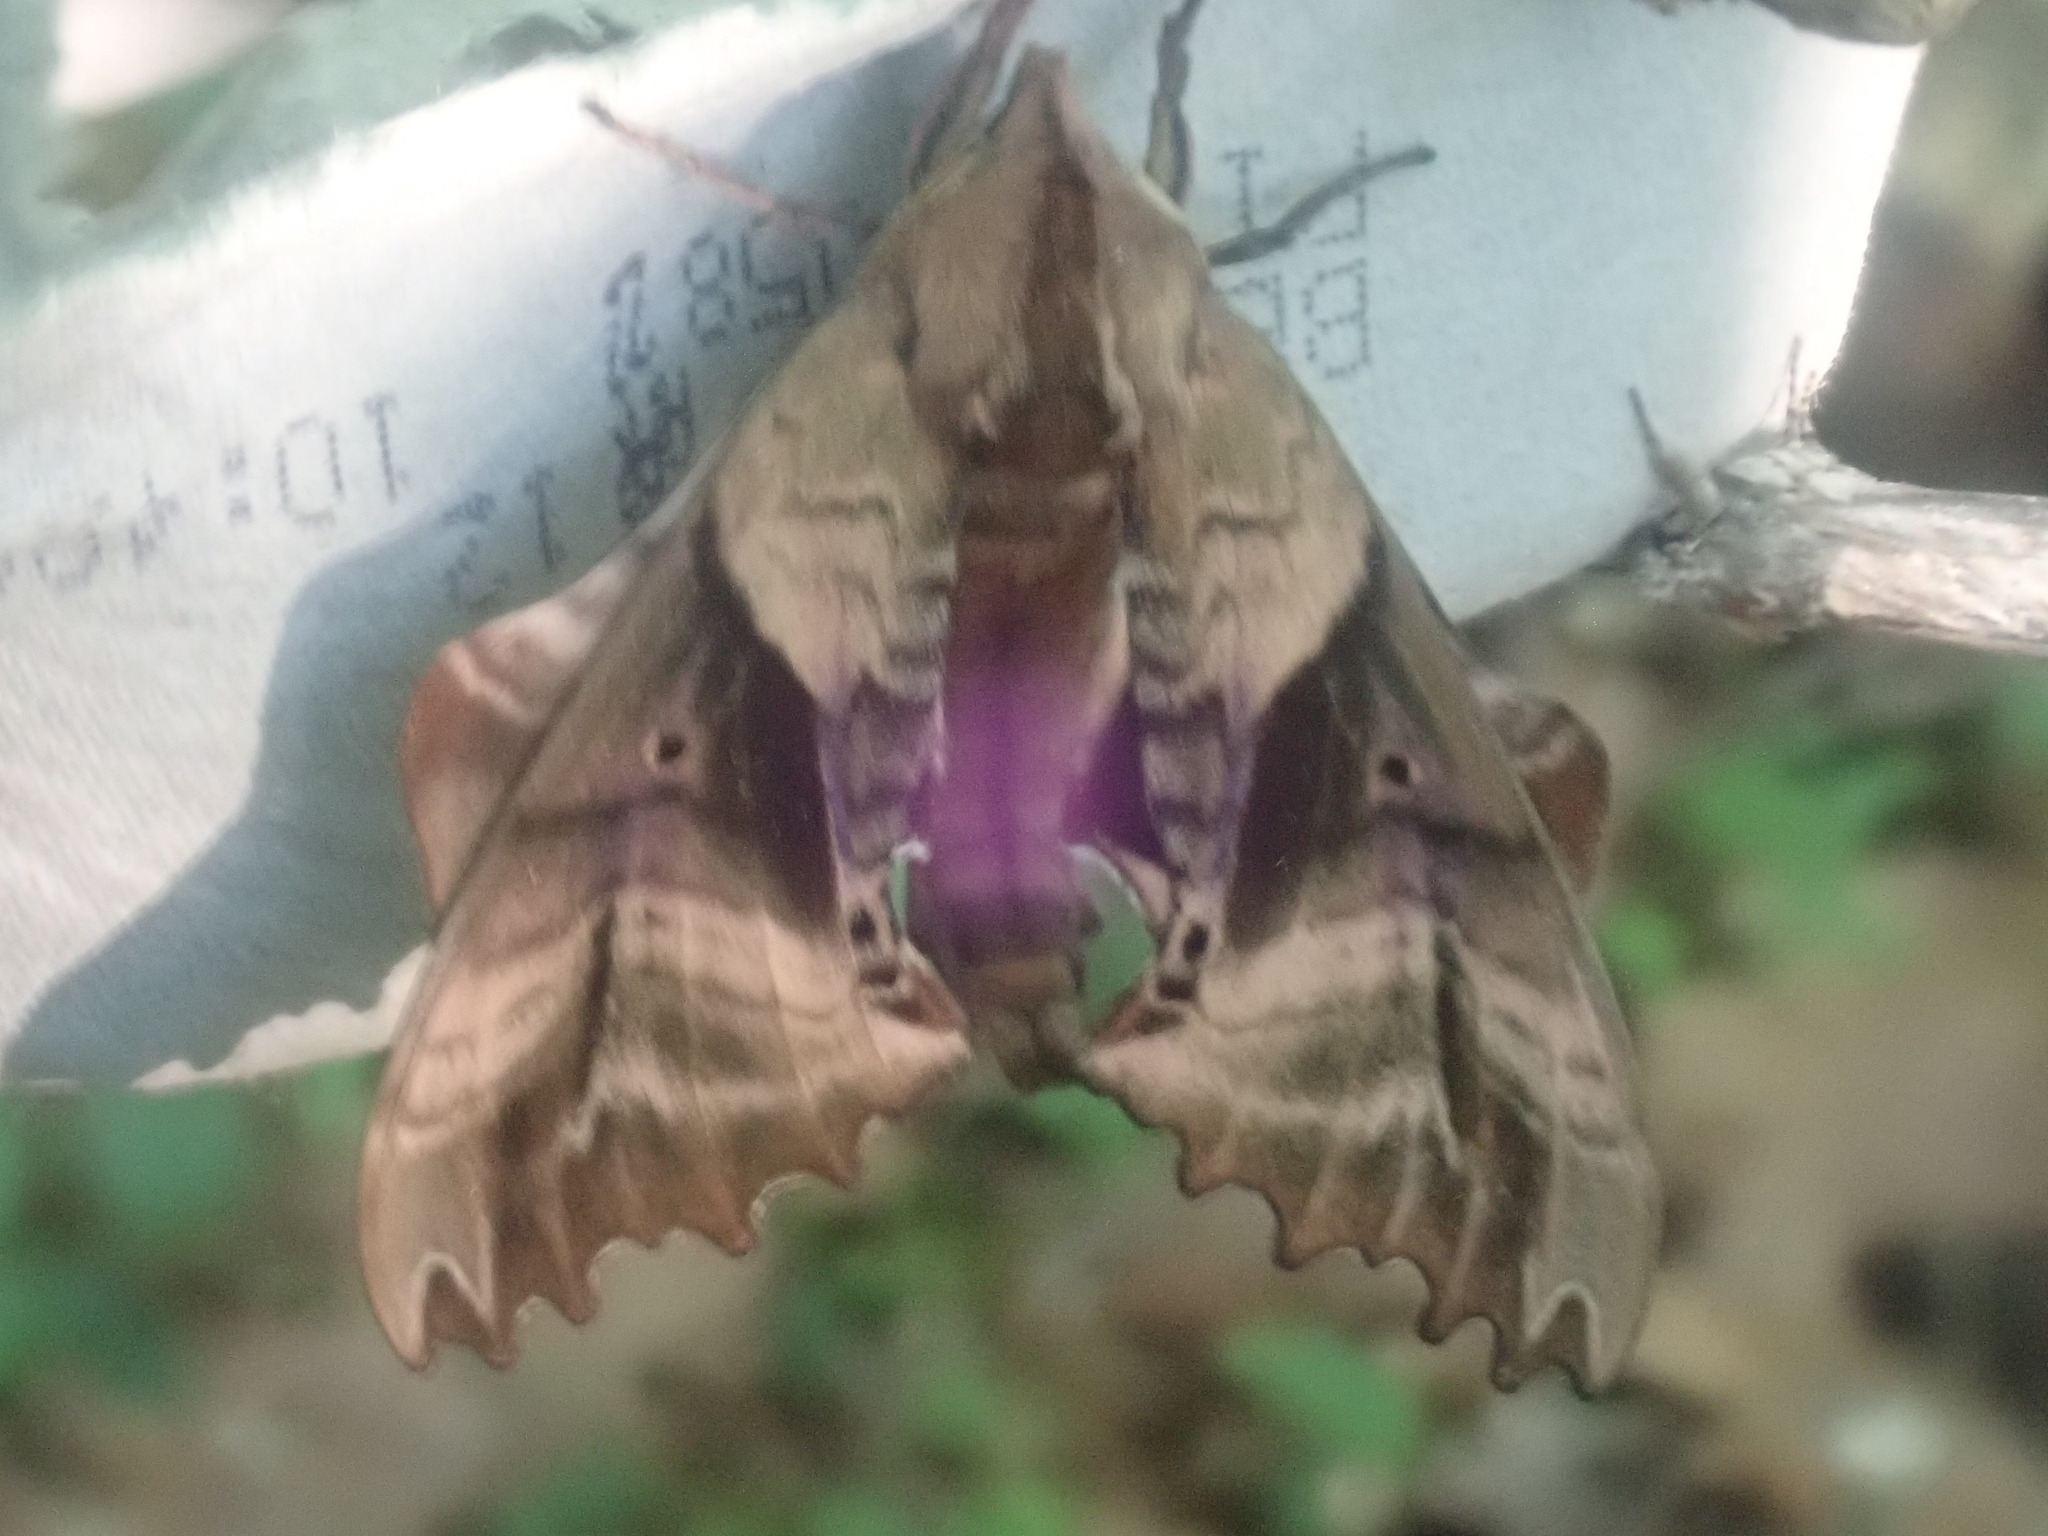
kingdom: Animalia
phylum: Arthropoda
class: Insecta
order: Lepidoptera
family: Sphingidae
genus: Paonias
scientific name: Paonias excaecata
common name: Blind-eyed sphinx
